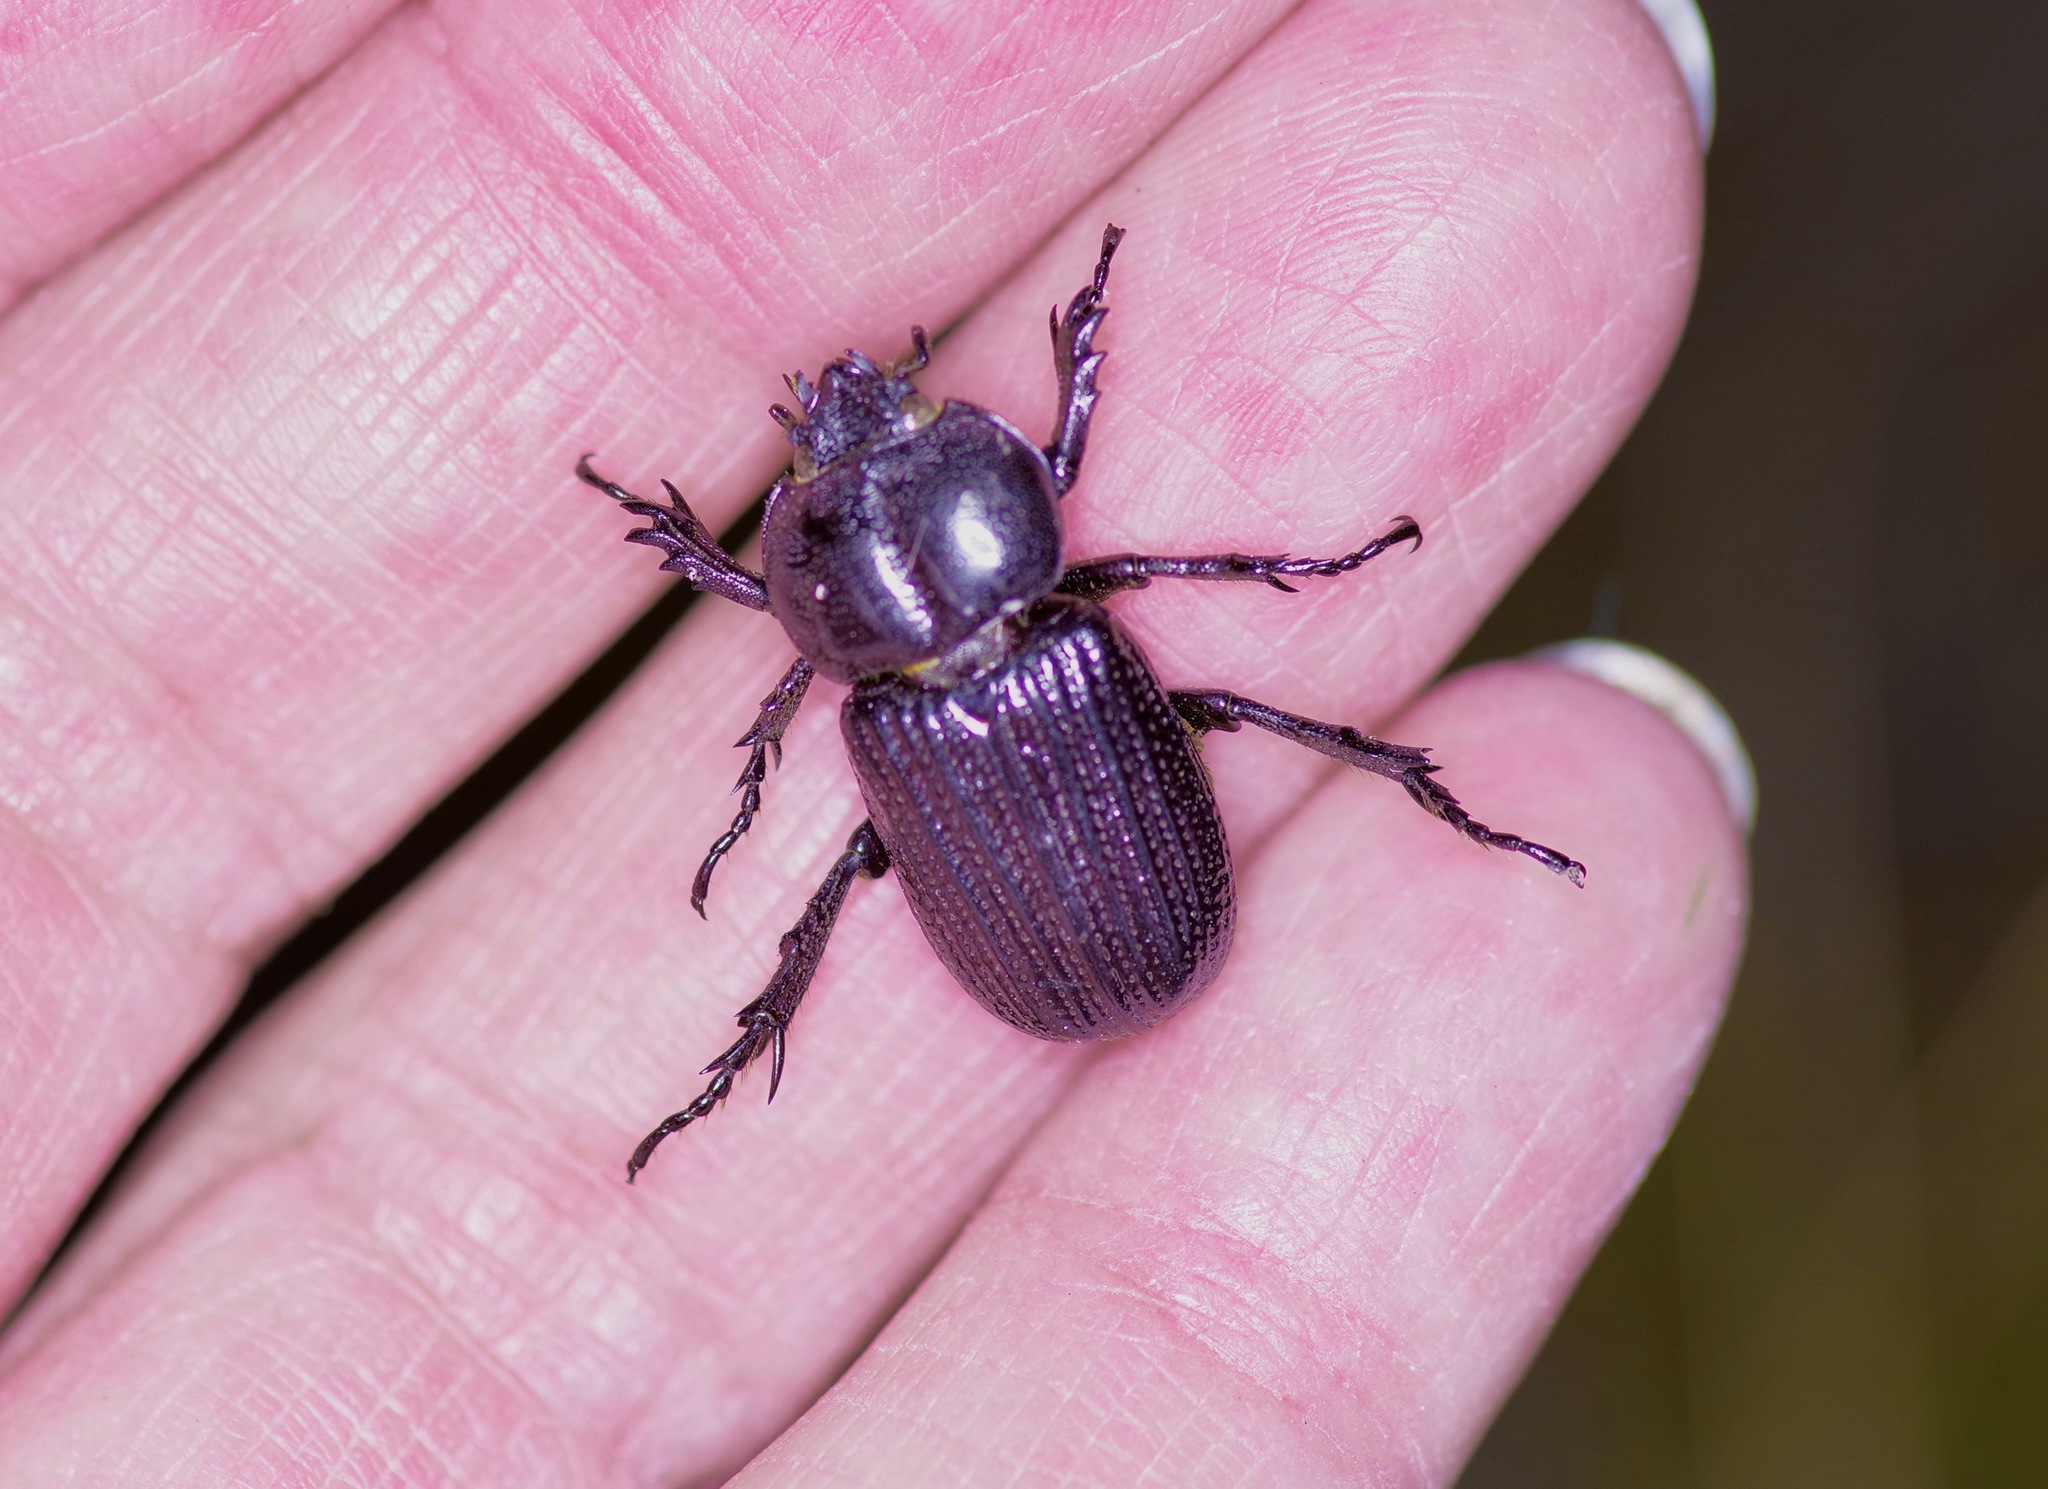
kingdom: Animalia
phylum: Arthropoda
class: Insecta
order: Coleoptera
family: Scarabaeidae
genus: Phileurus
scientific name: Phileurus valgus
